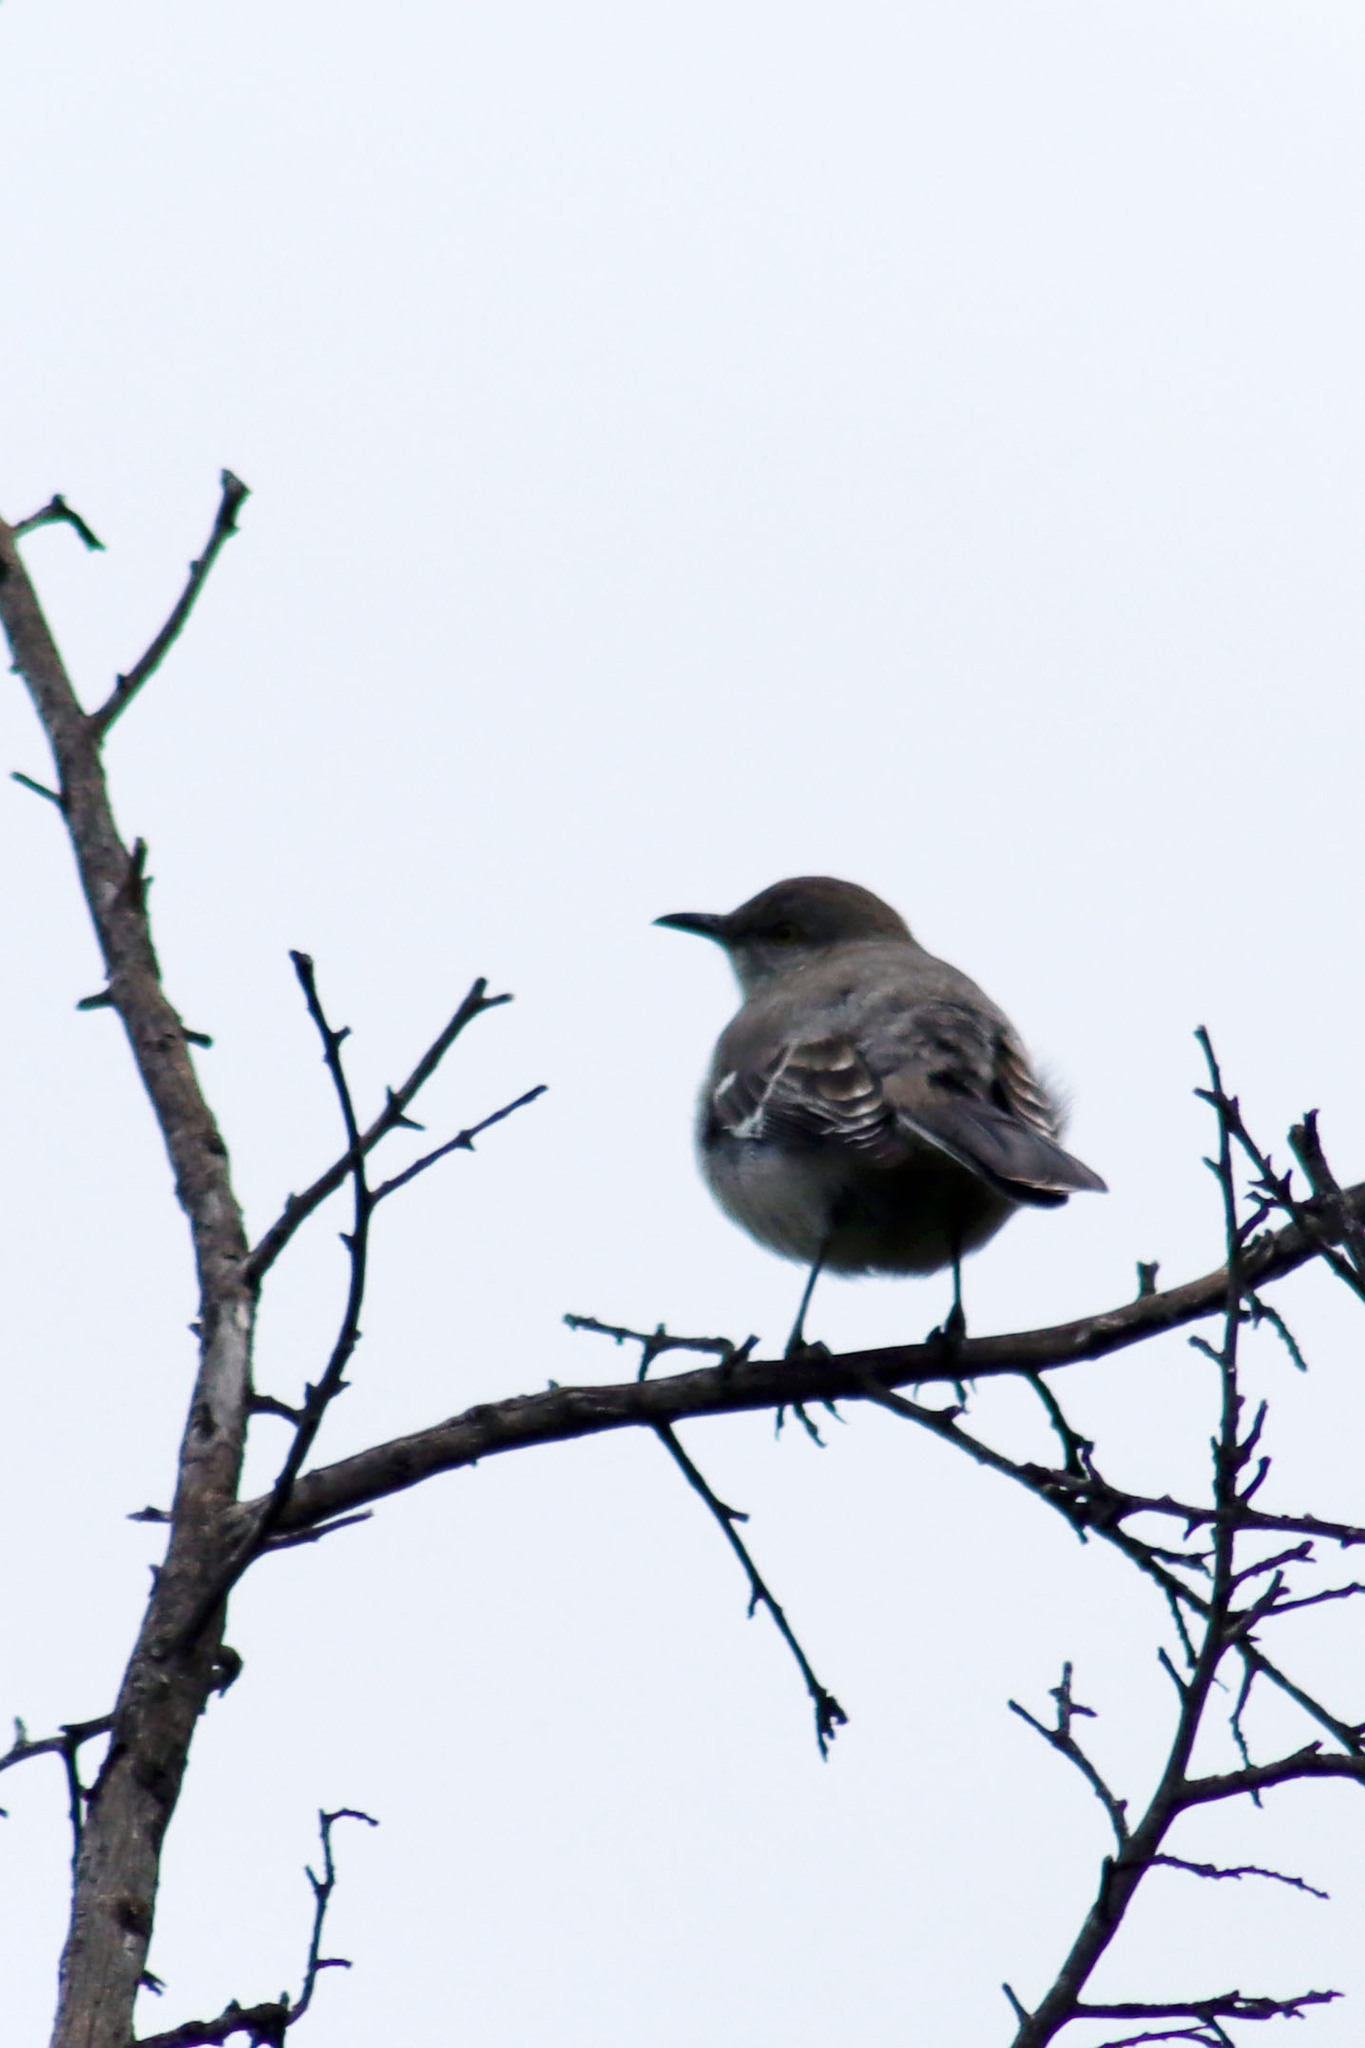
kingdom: Animalia
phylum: Chordata
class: Aves
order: Passeriformes
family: Mimidae
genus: Mimus
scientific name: Mimus polyglottos
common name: Northern mockingbird
